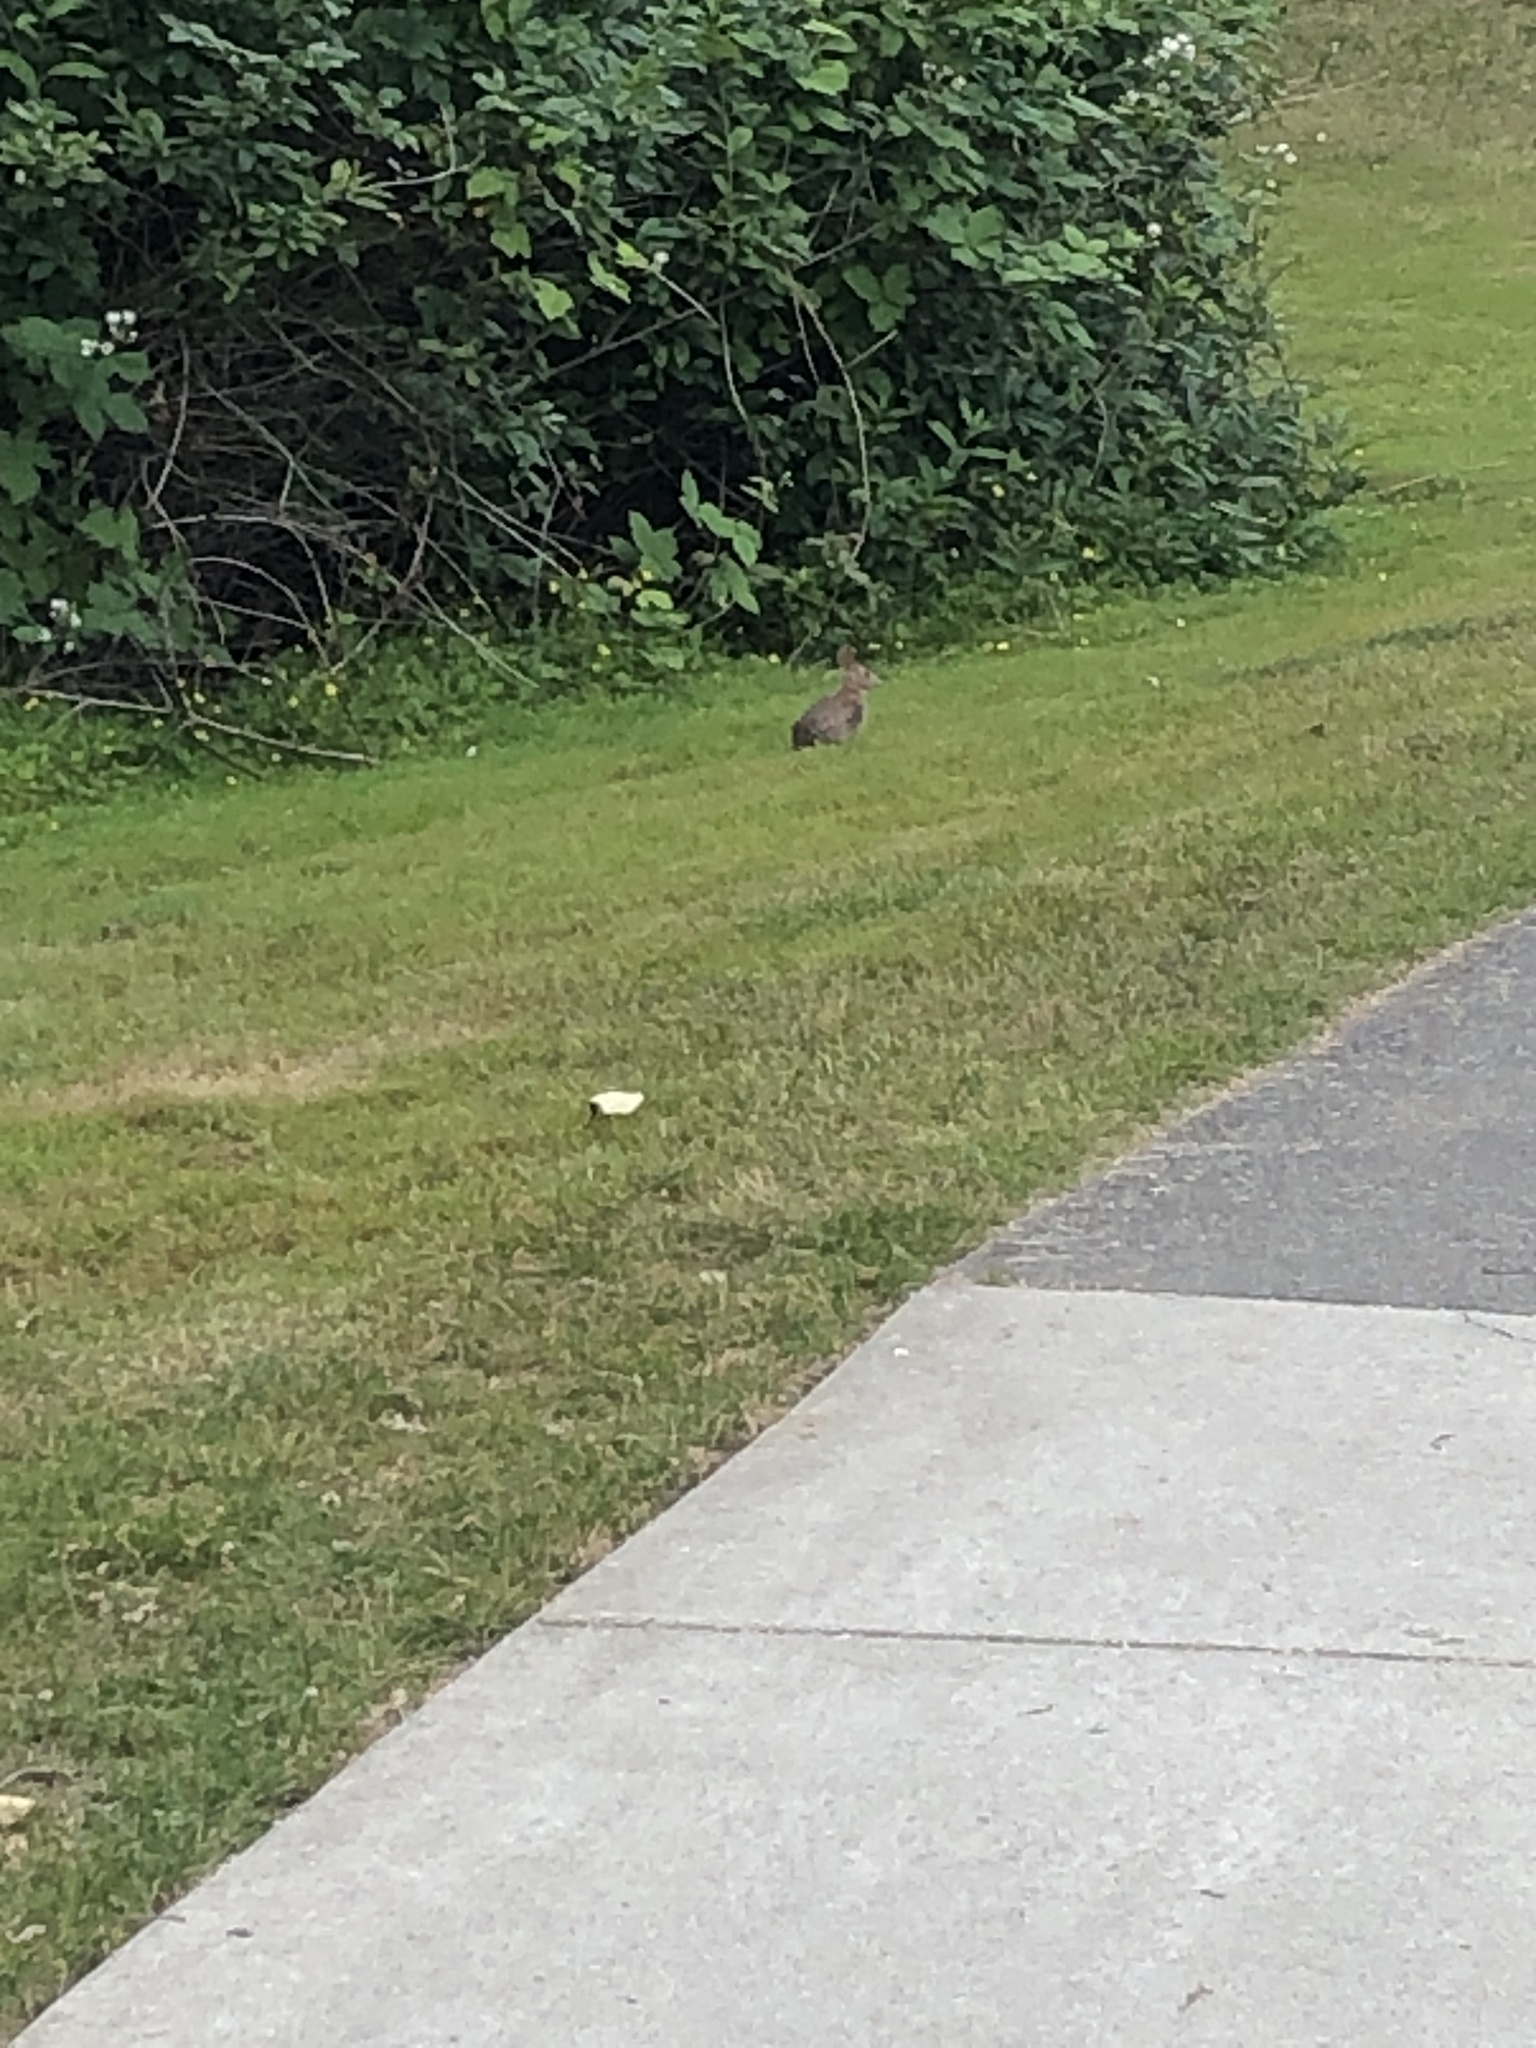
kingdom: Animalia
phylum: Chordata
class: Mammalia
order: Lagomorpha
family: Leporidae
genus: Sylvilagus
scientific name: Sylvilagus floridanus
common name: Eastern cottontail
